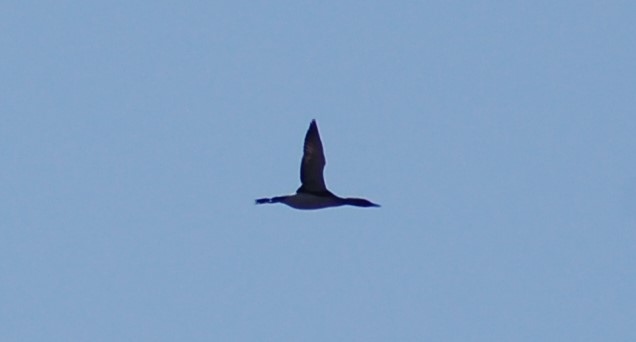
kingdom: Animalia
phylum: Chordata
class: Aves
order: Gaviiformes
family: Gaviidae
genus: Gavia
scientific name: Gavia arctica
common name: Black-throated loon
